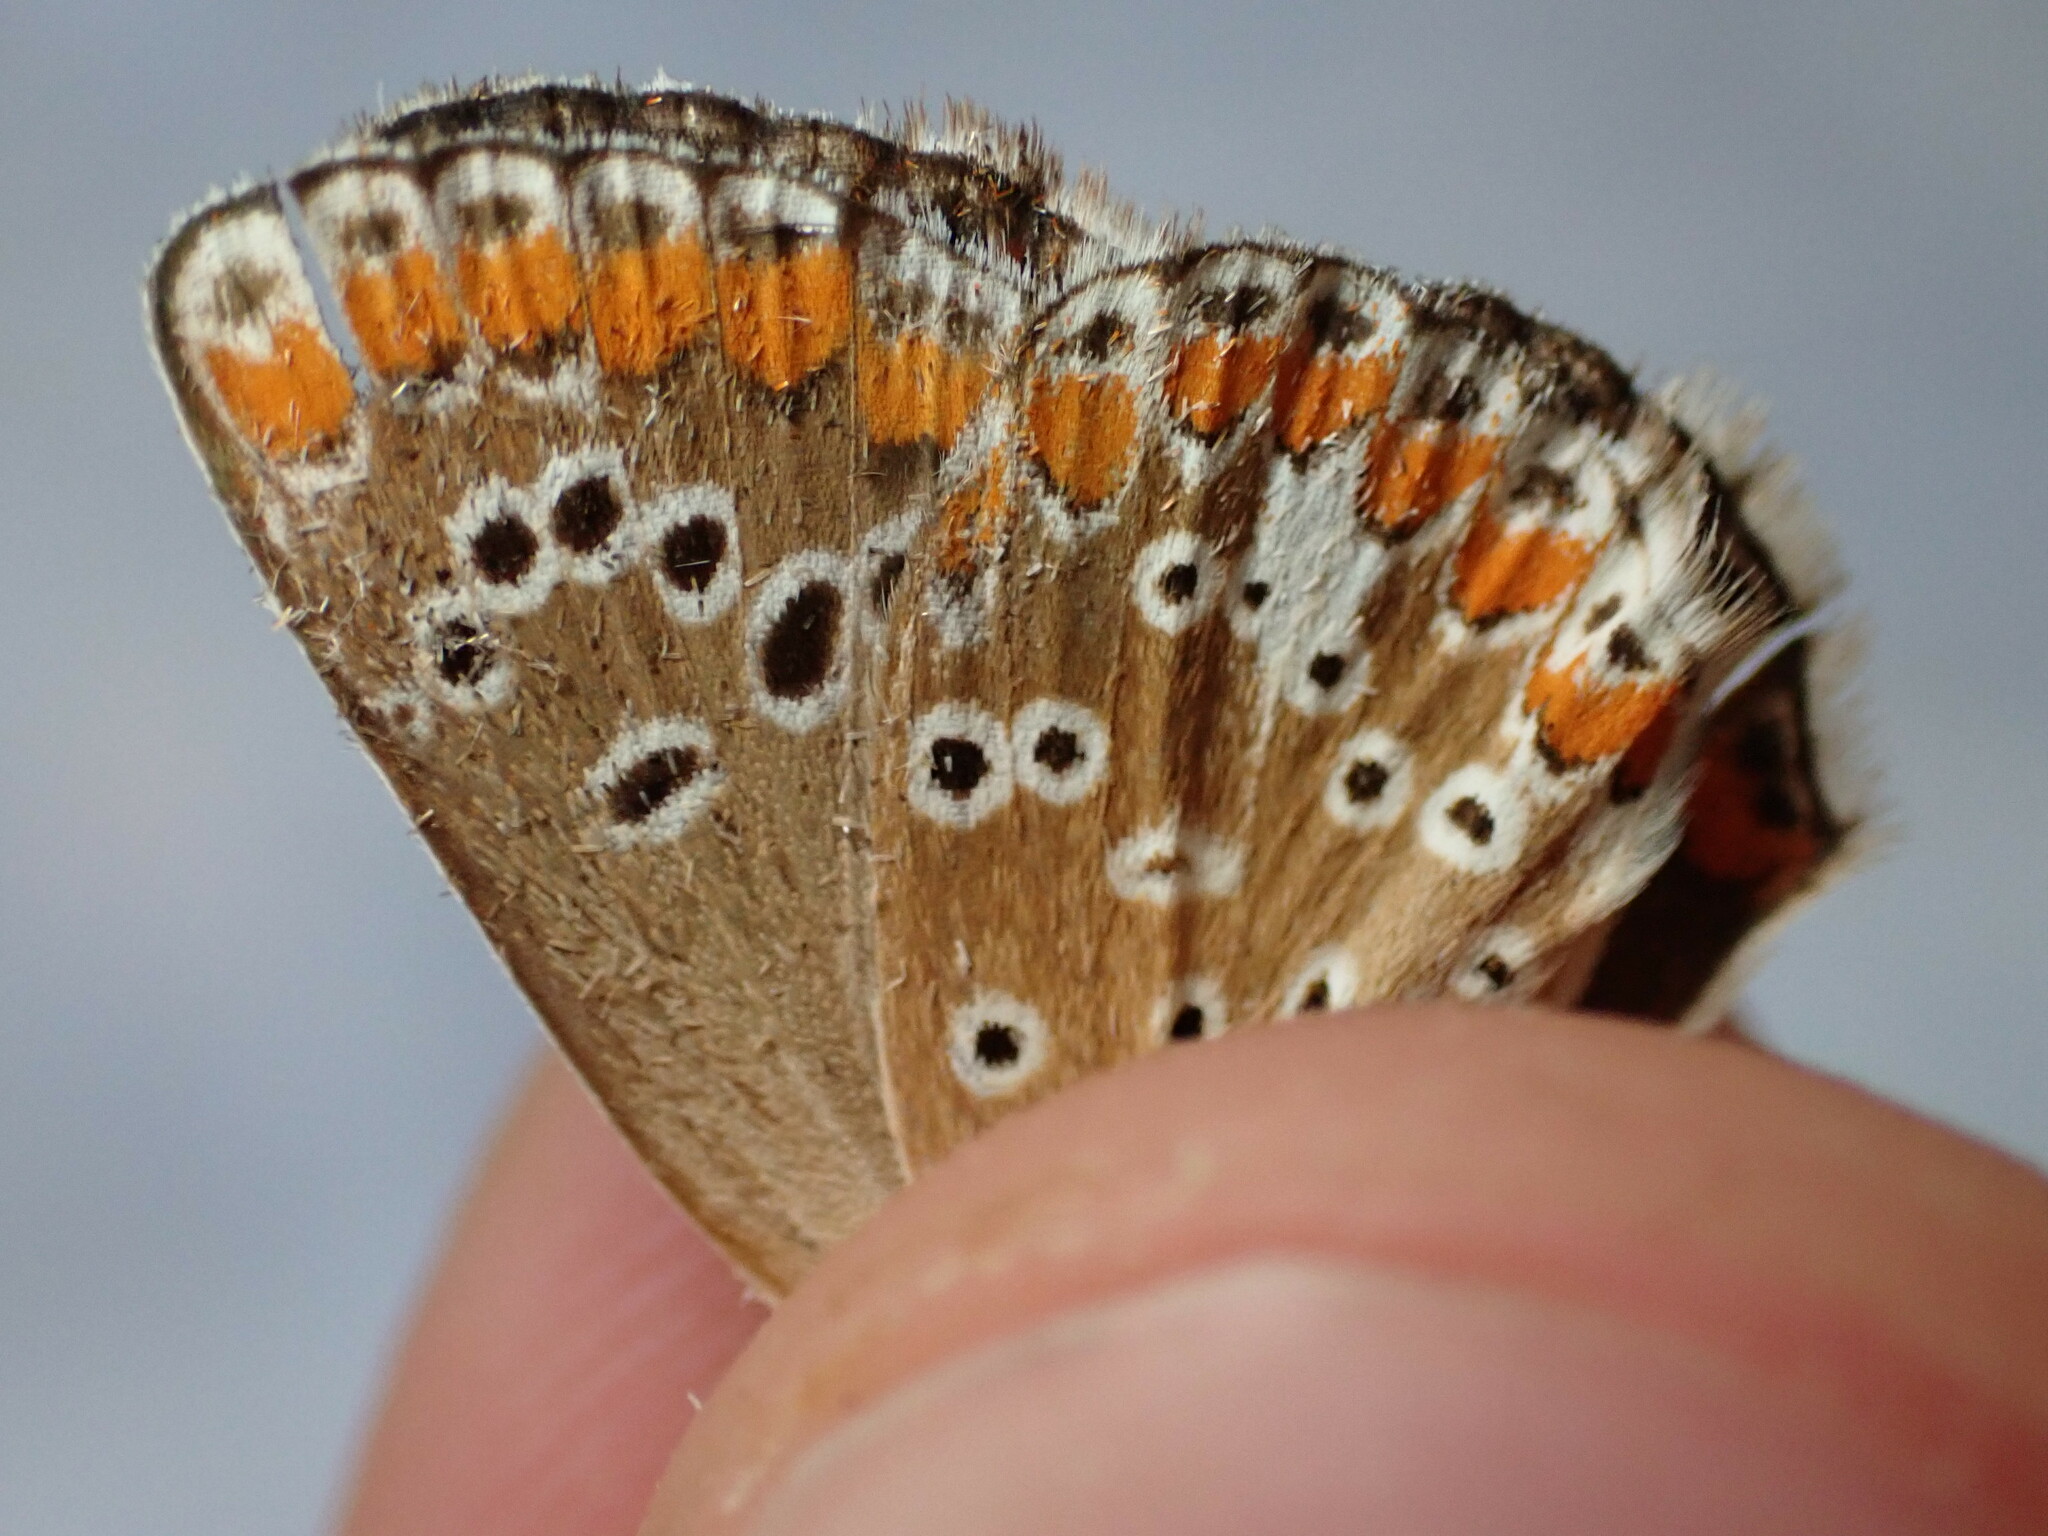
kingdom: Animalia
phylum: Arthropoda
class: Insecta
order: Lepidoptera
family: Lycaenidae
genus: Aricia
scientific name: Aricia agestis
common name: Brown argus
